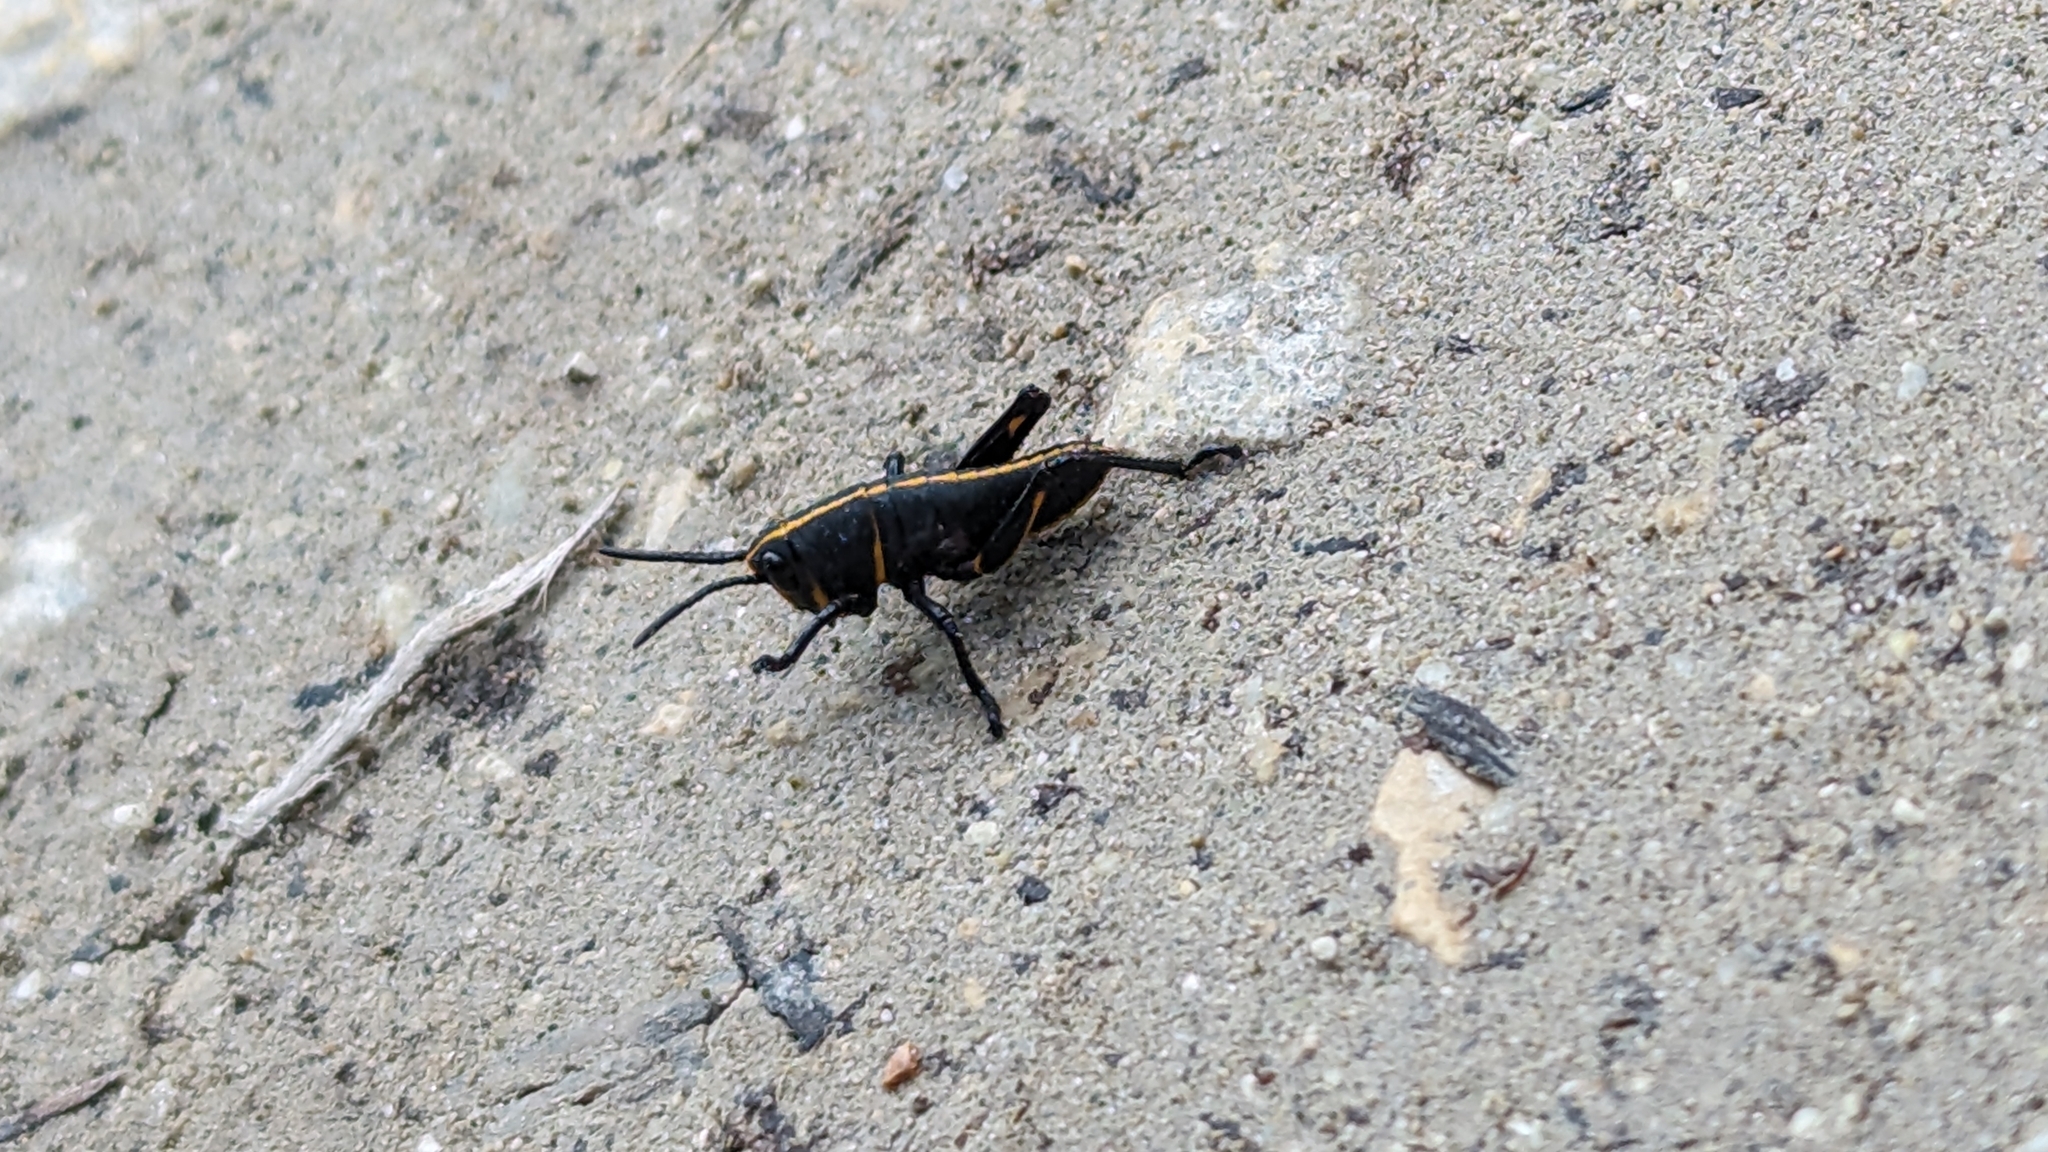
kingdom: Animalia
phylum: Arthropoda
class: Insecta
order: Orthoptera
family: Romaleidae
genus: Romalea
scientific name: Romalea microptera
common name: Eastern lubber grasshopper
